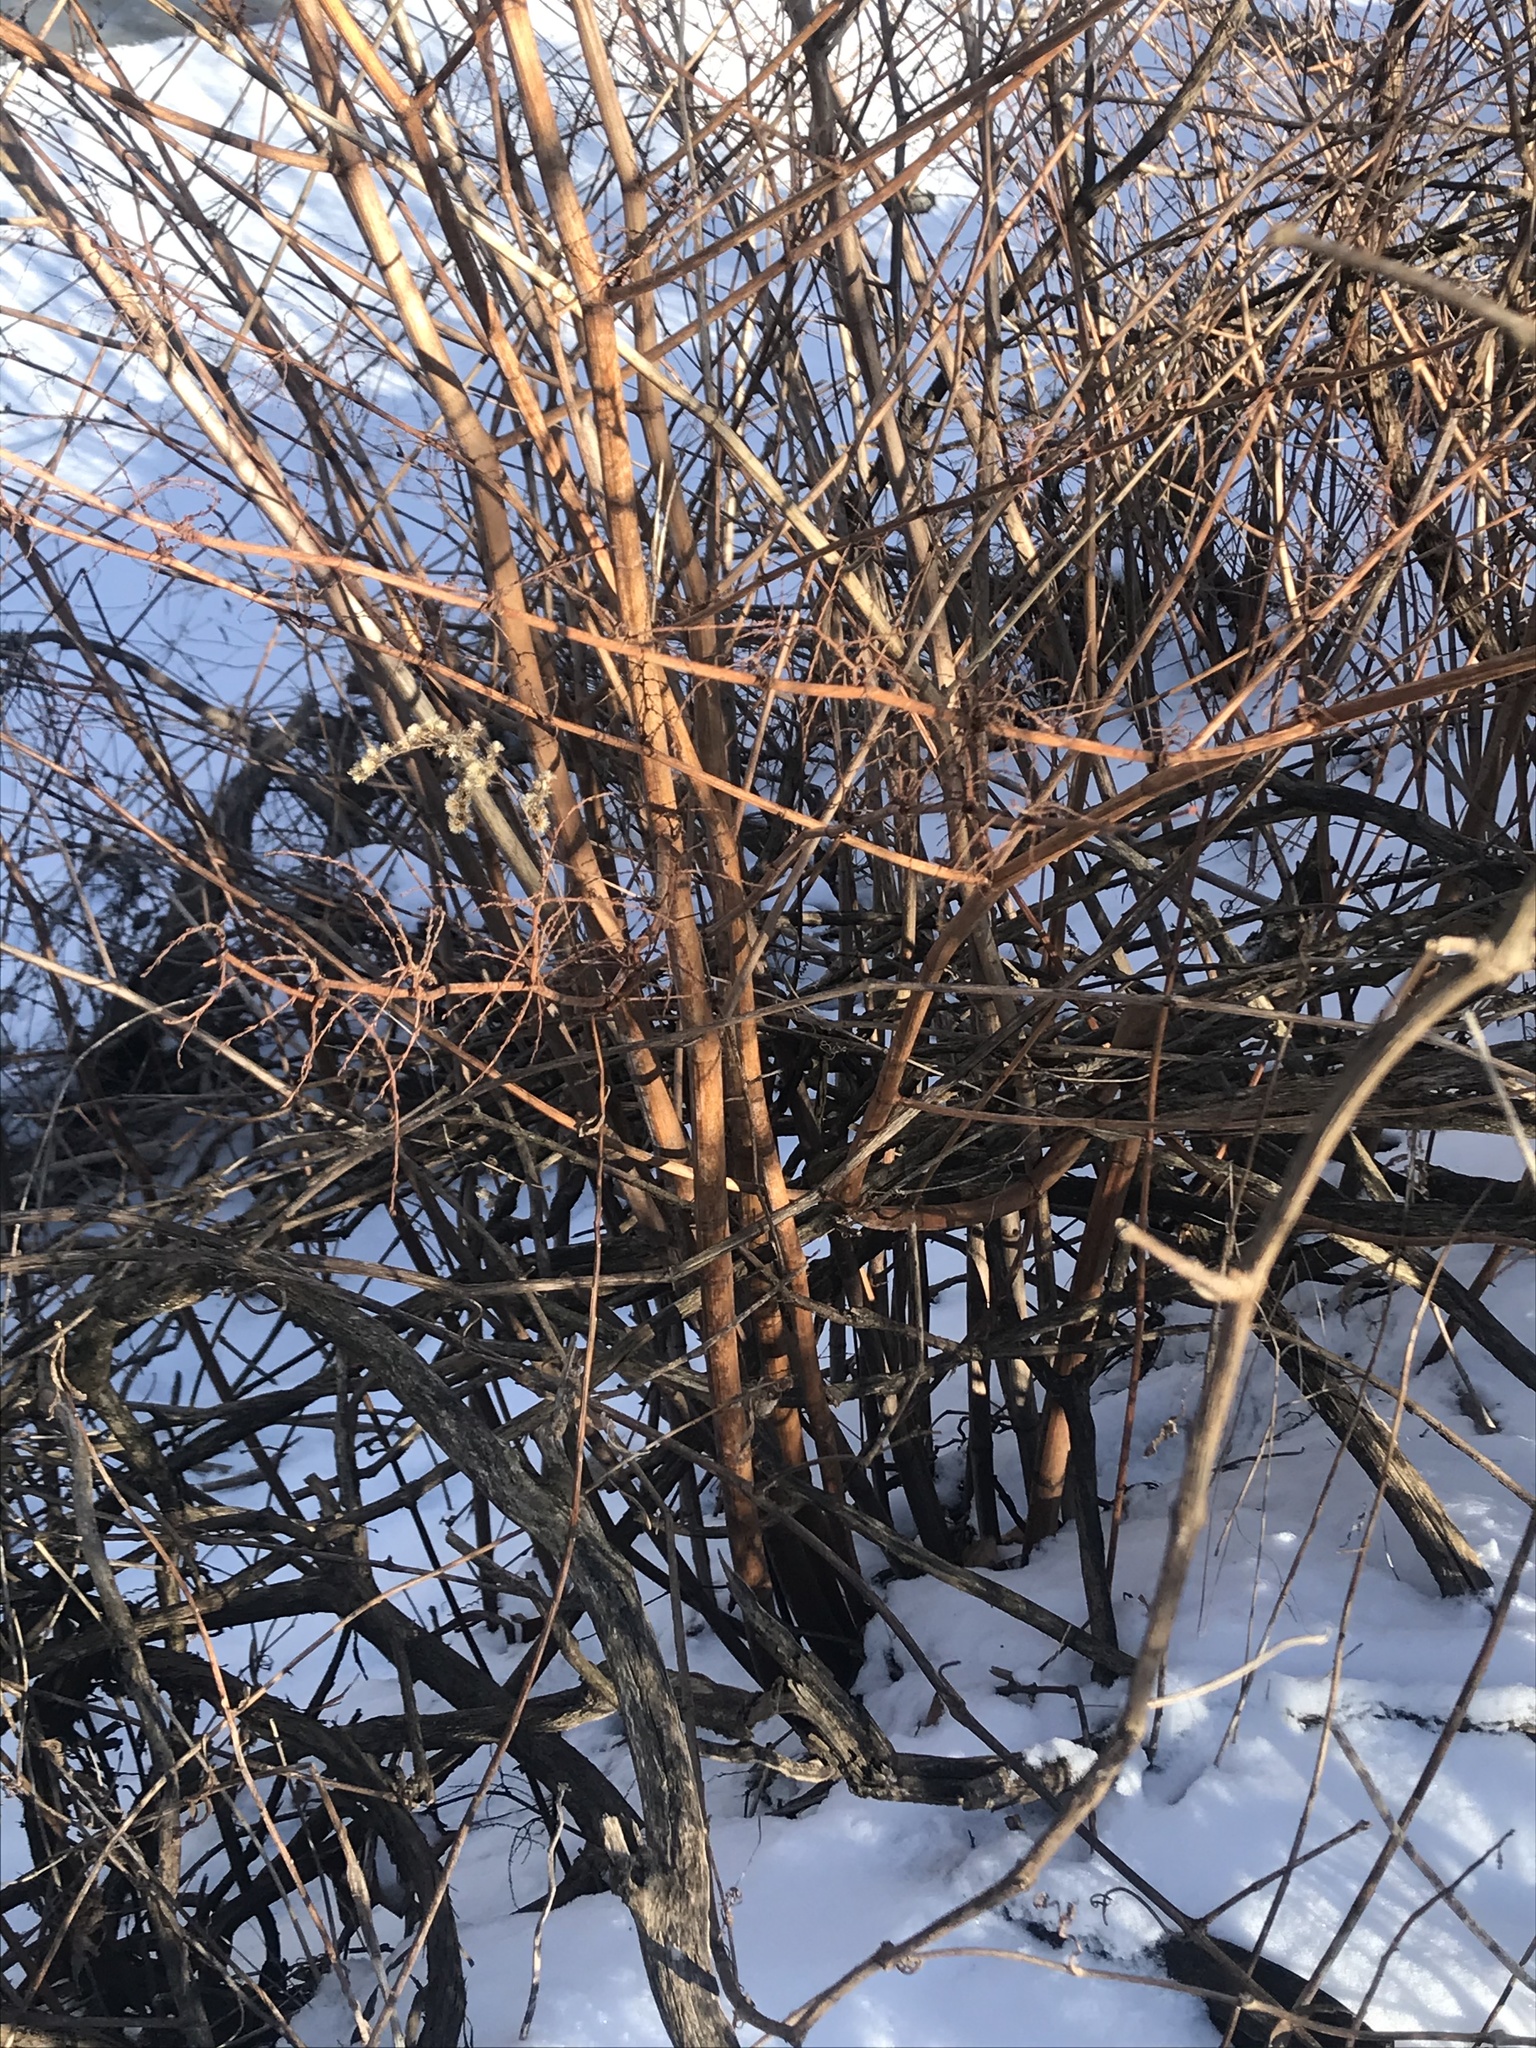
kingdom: Plantae
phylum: Tracheophyta
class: Magnoliopsida
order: Caryophyllales
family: Polygonaceae
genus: Reynoutria
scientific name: Reynoutria japonica
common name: Japanese knotweed
